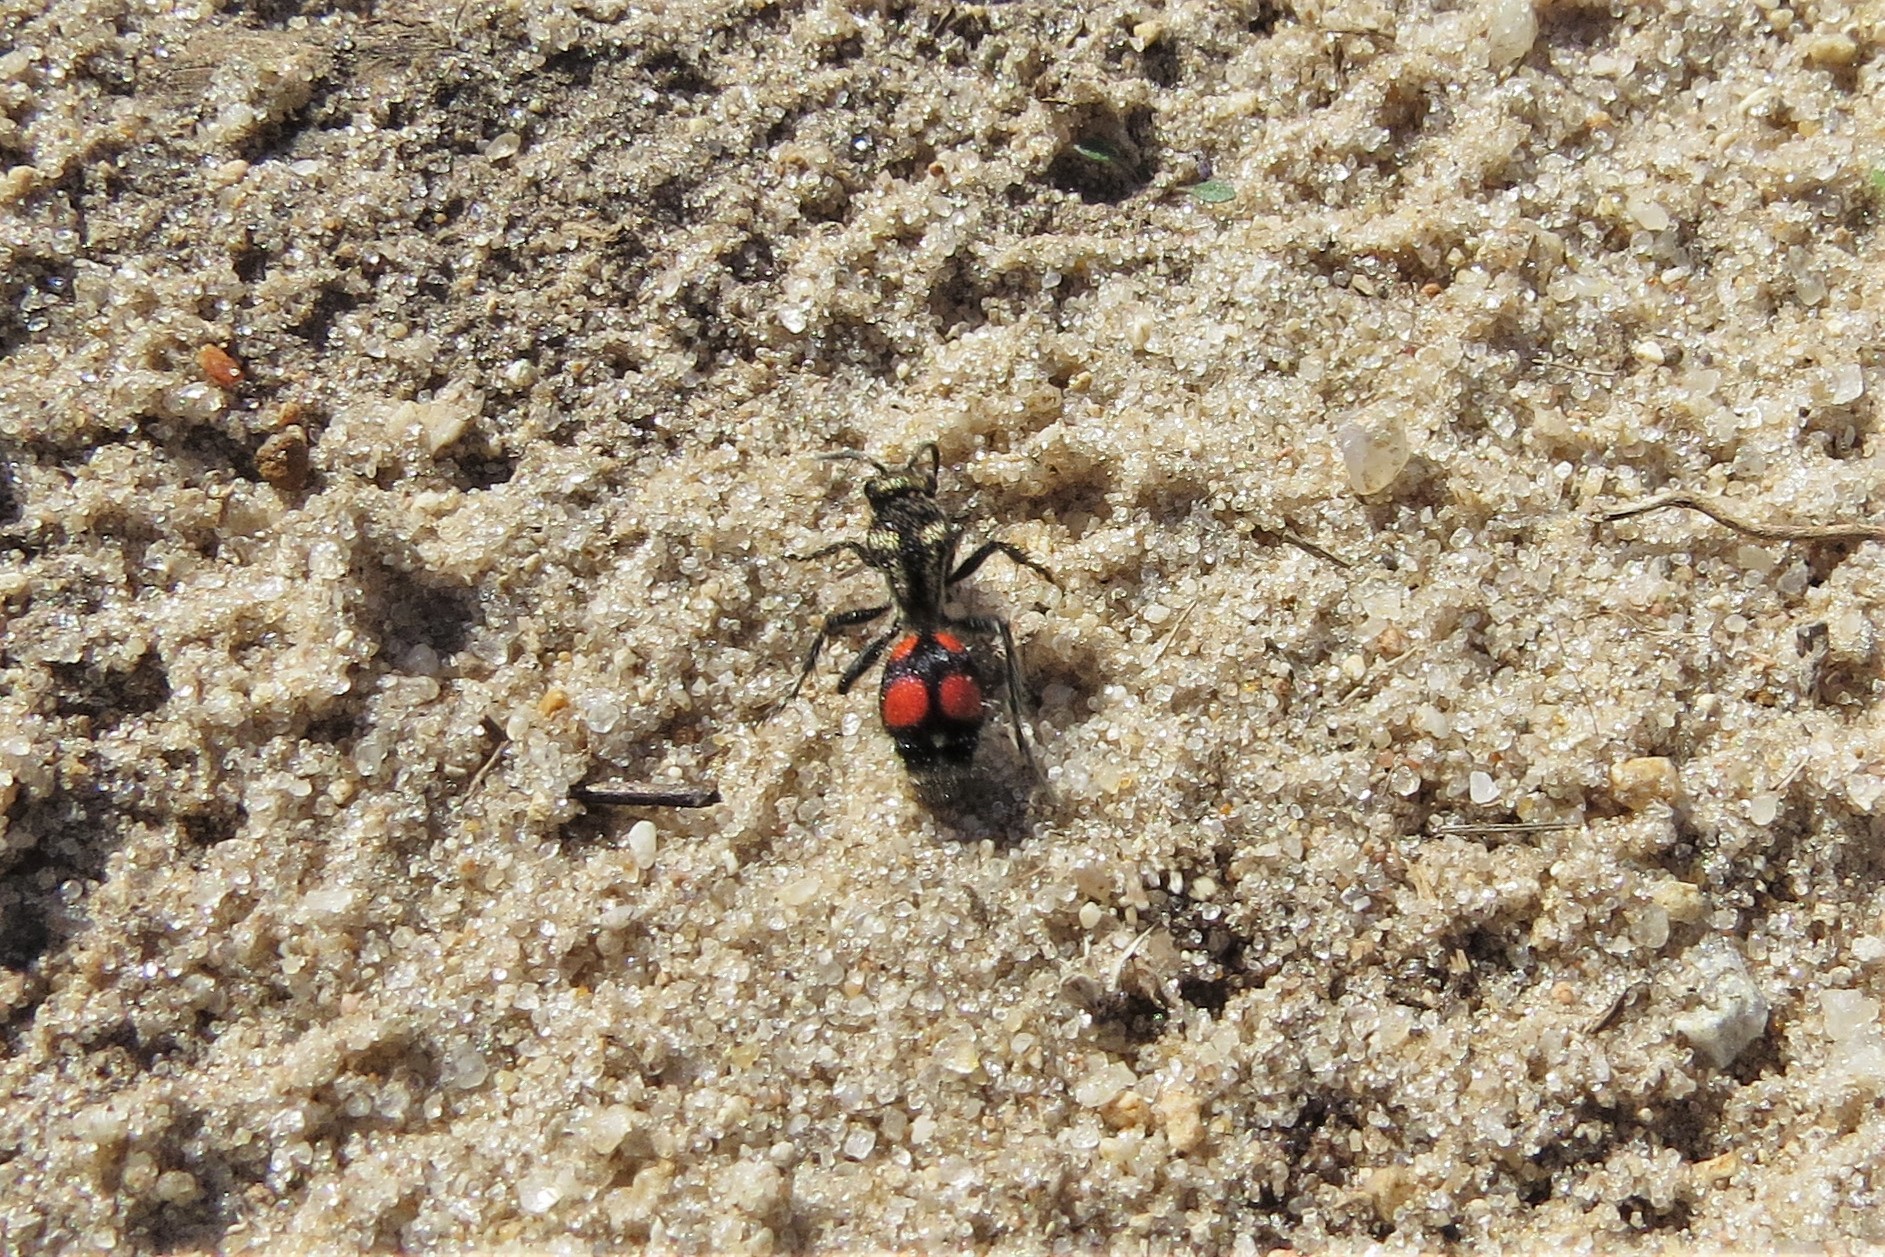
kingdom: Animalia
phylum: Arthropoda
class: Insecta
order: Hymenoptera
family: Mutillidae
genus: Traumatomutilla
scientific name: Traumatomutilla
